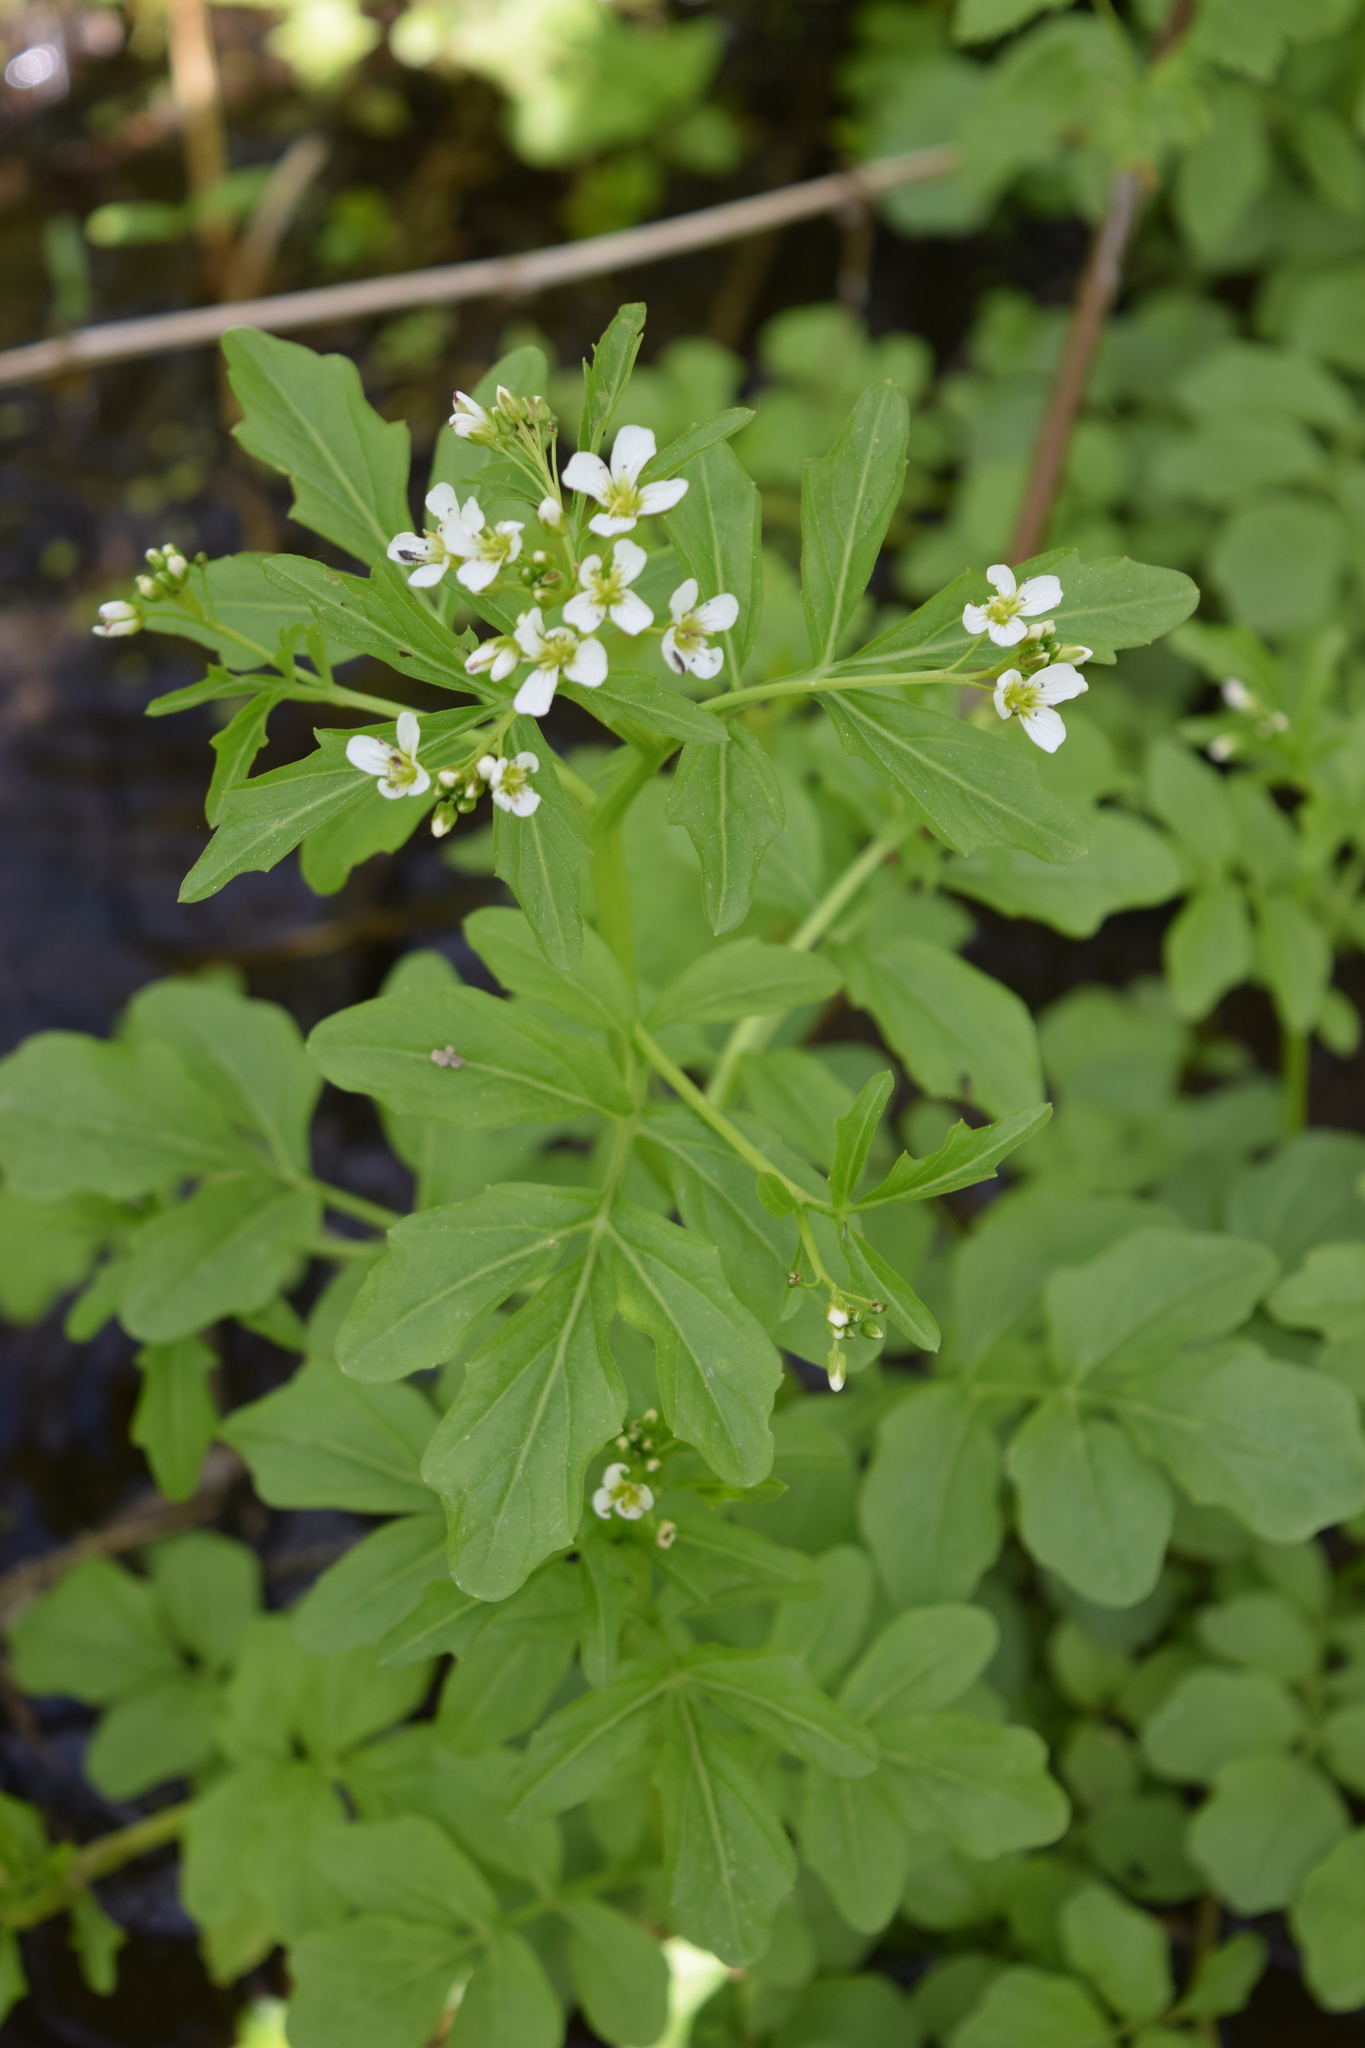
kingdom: Plantae
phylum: Tracheophyta
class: Magnoliopsida
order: Brassicales
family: Brassicaceae
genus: Cardamine
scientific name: Cardamine amara
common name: Large bitter-cress
